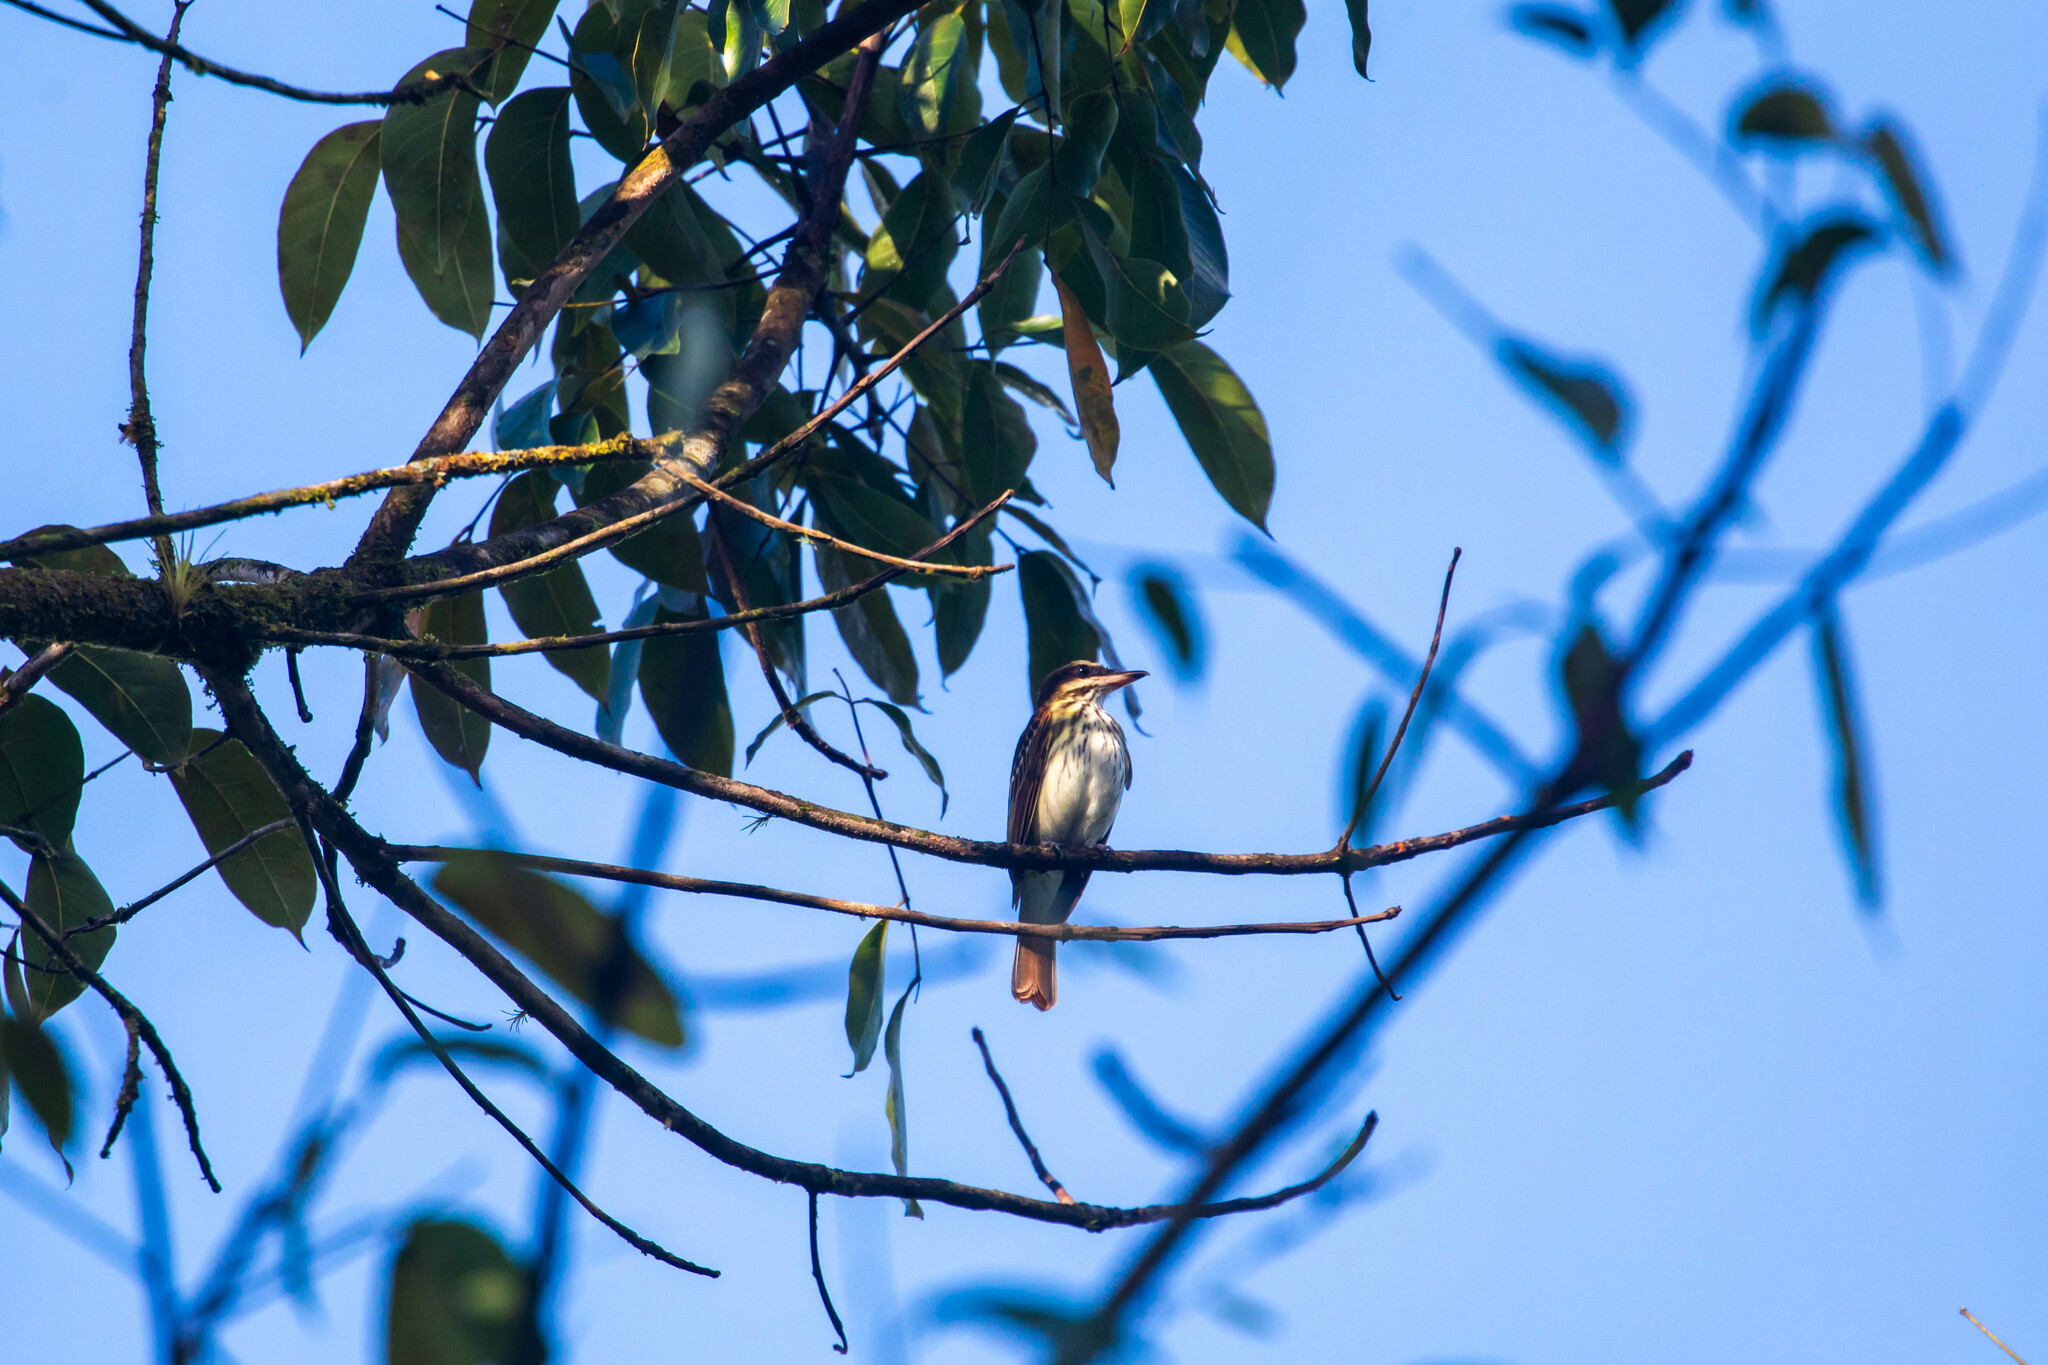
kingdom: Animalia
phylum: Chordata
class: Aves
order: Passeriformes
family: Tyrannidae
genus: Myiodynastes
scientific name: Myiodynastes maculatus
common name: Streaked flycatcher
